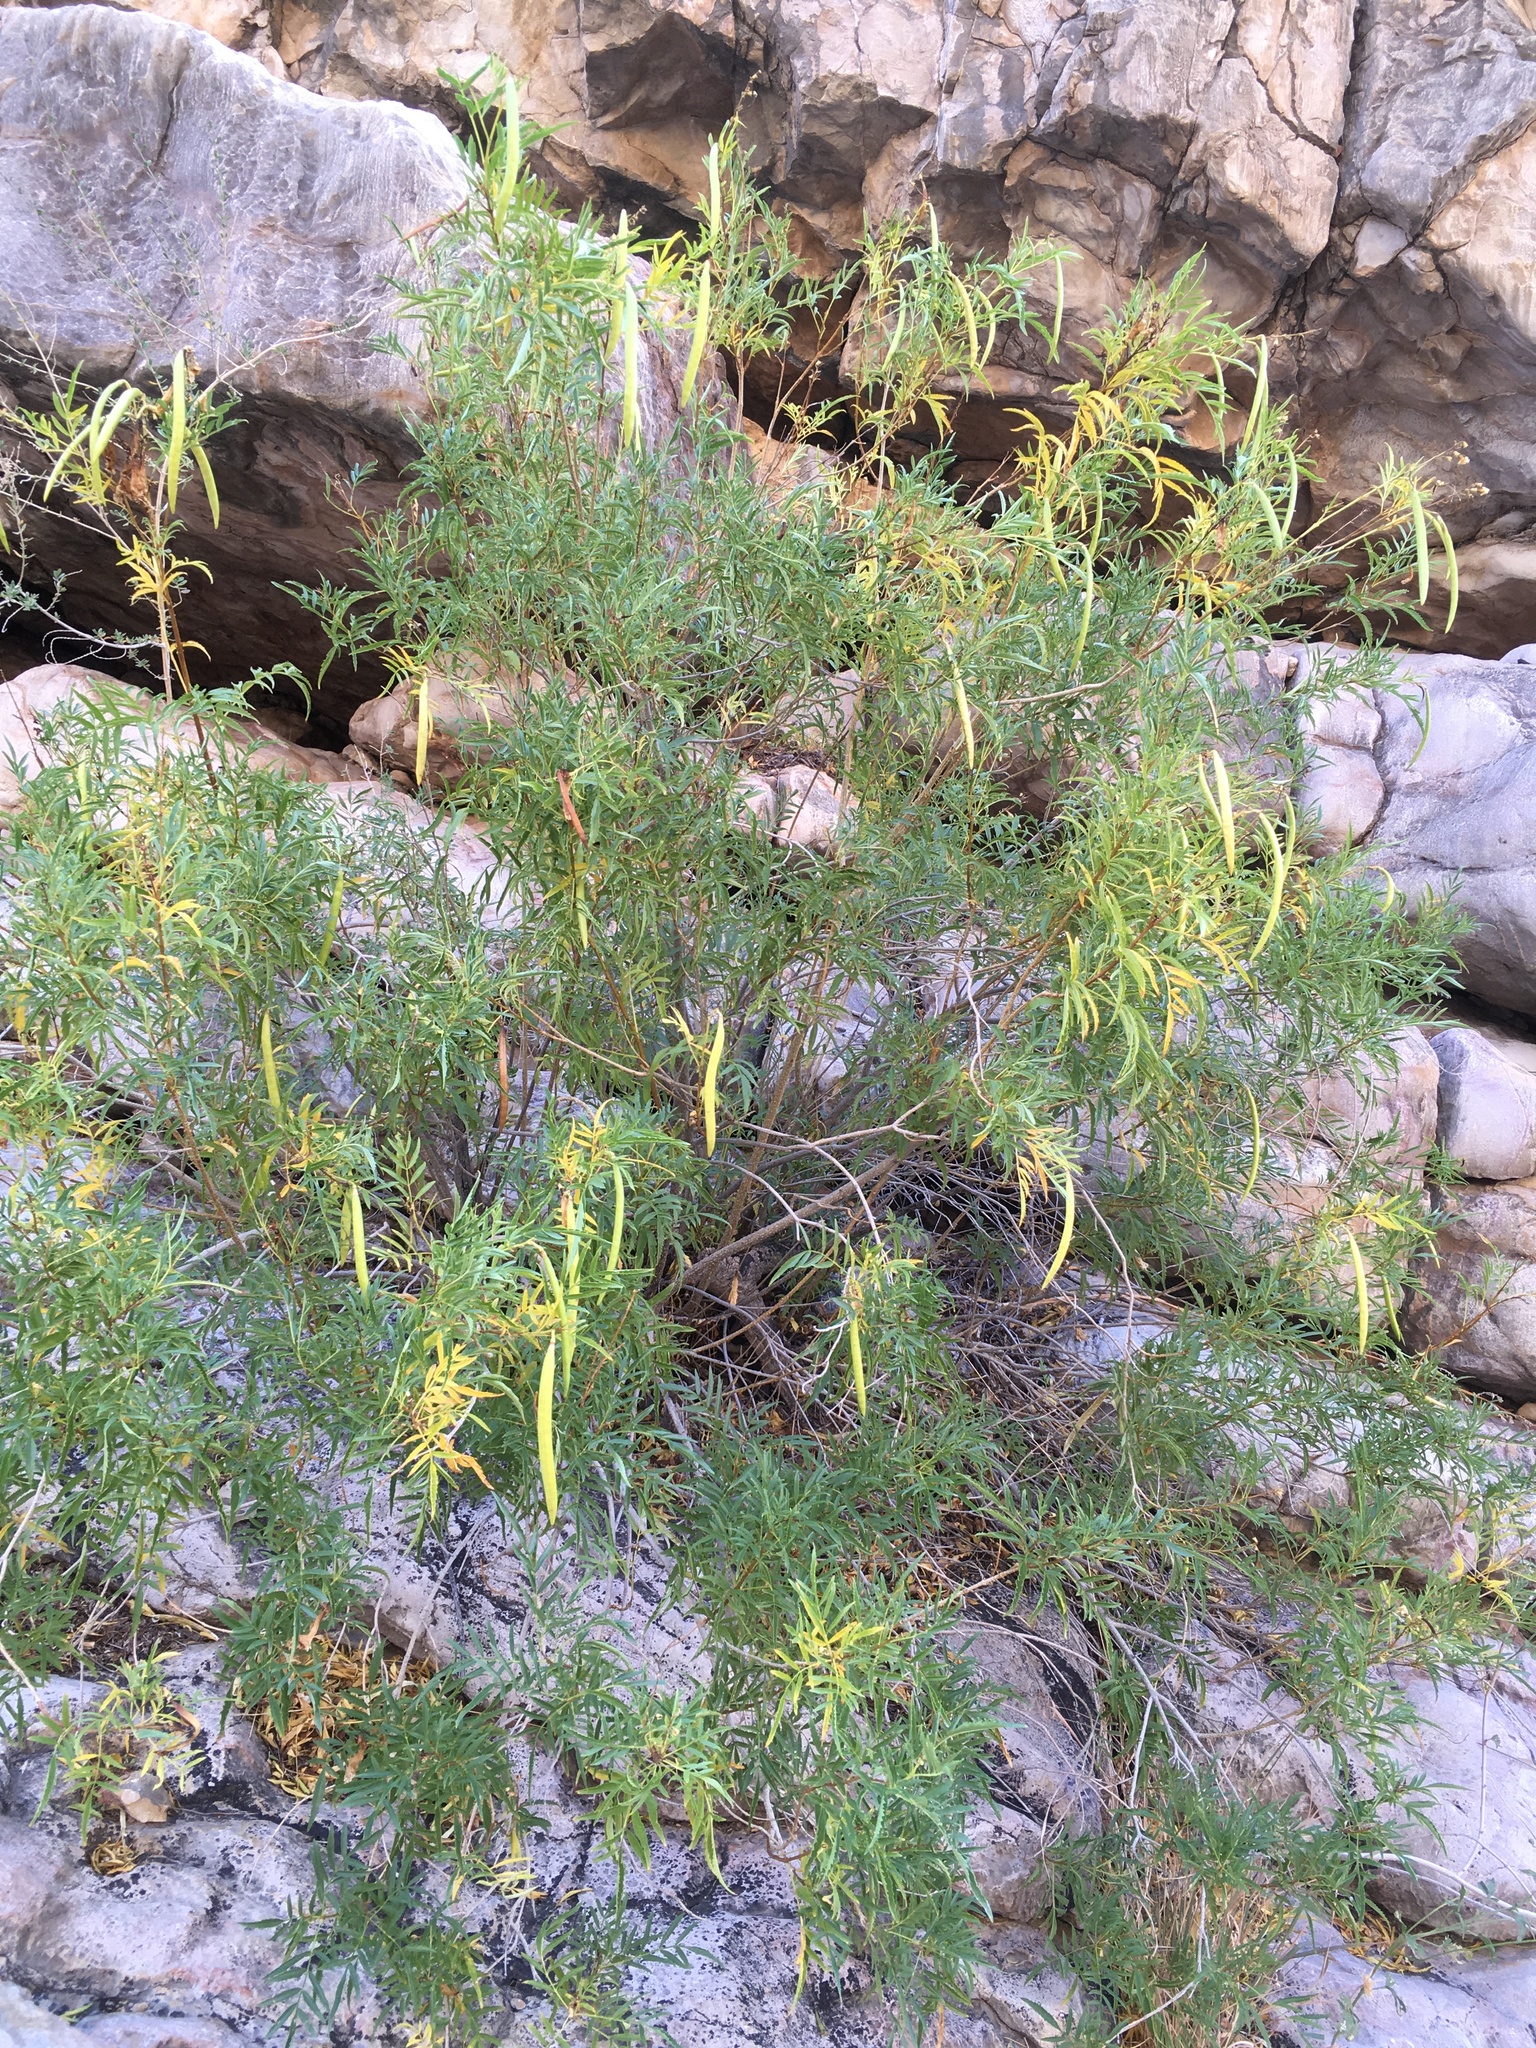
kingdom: Plantae
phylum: Tracheophyta
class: Magnoliopsida
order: Lamiales
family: Bignoniaceae
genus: Tecoma
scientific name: Tecoma stans
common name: Yellow trumpetbush
